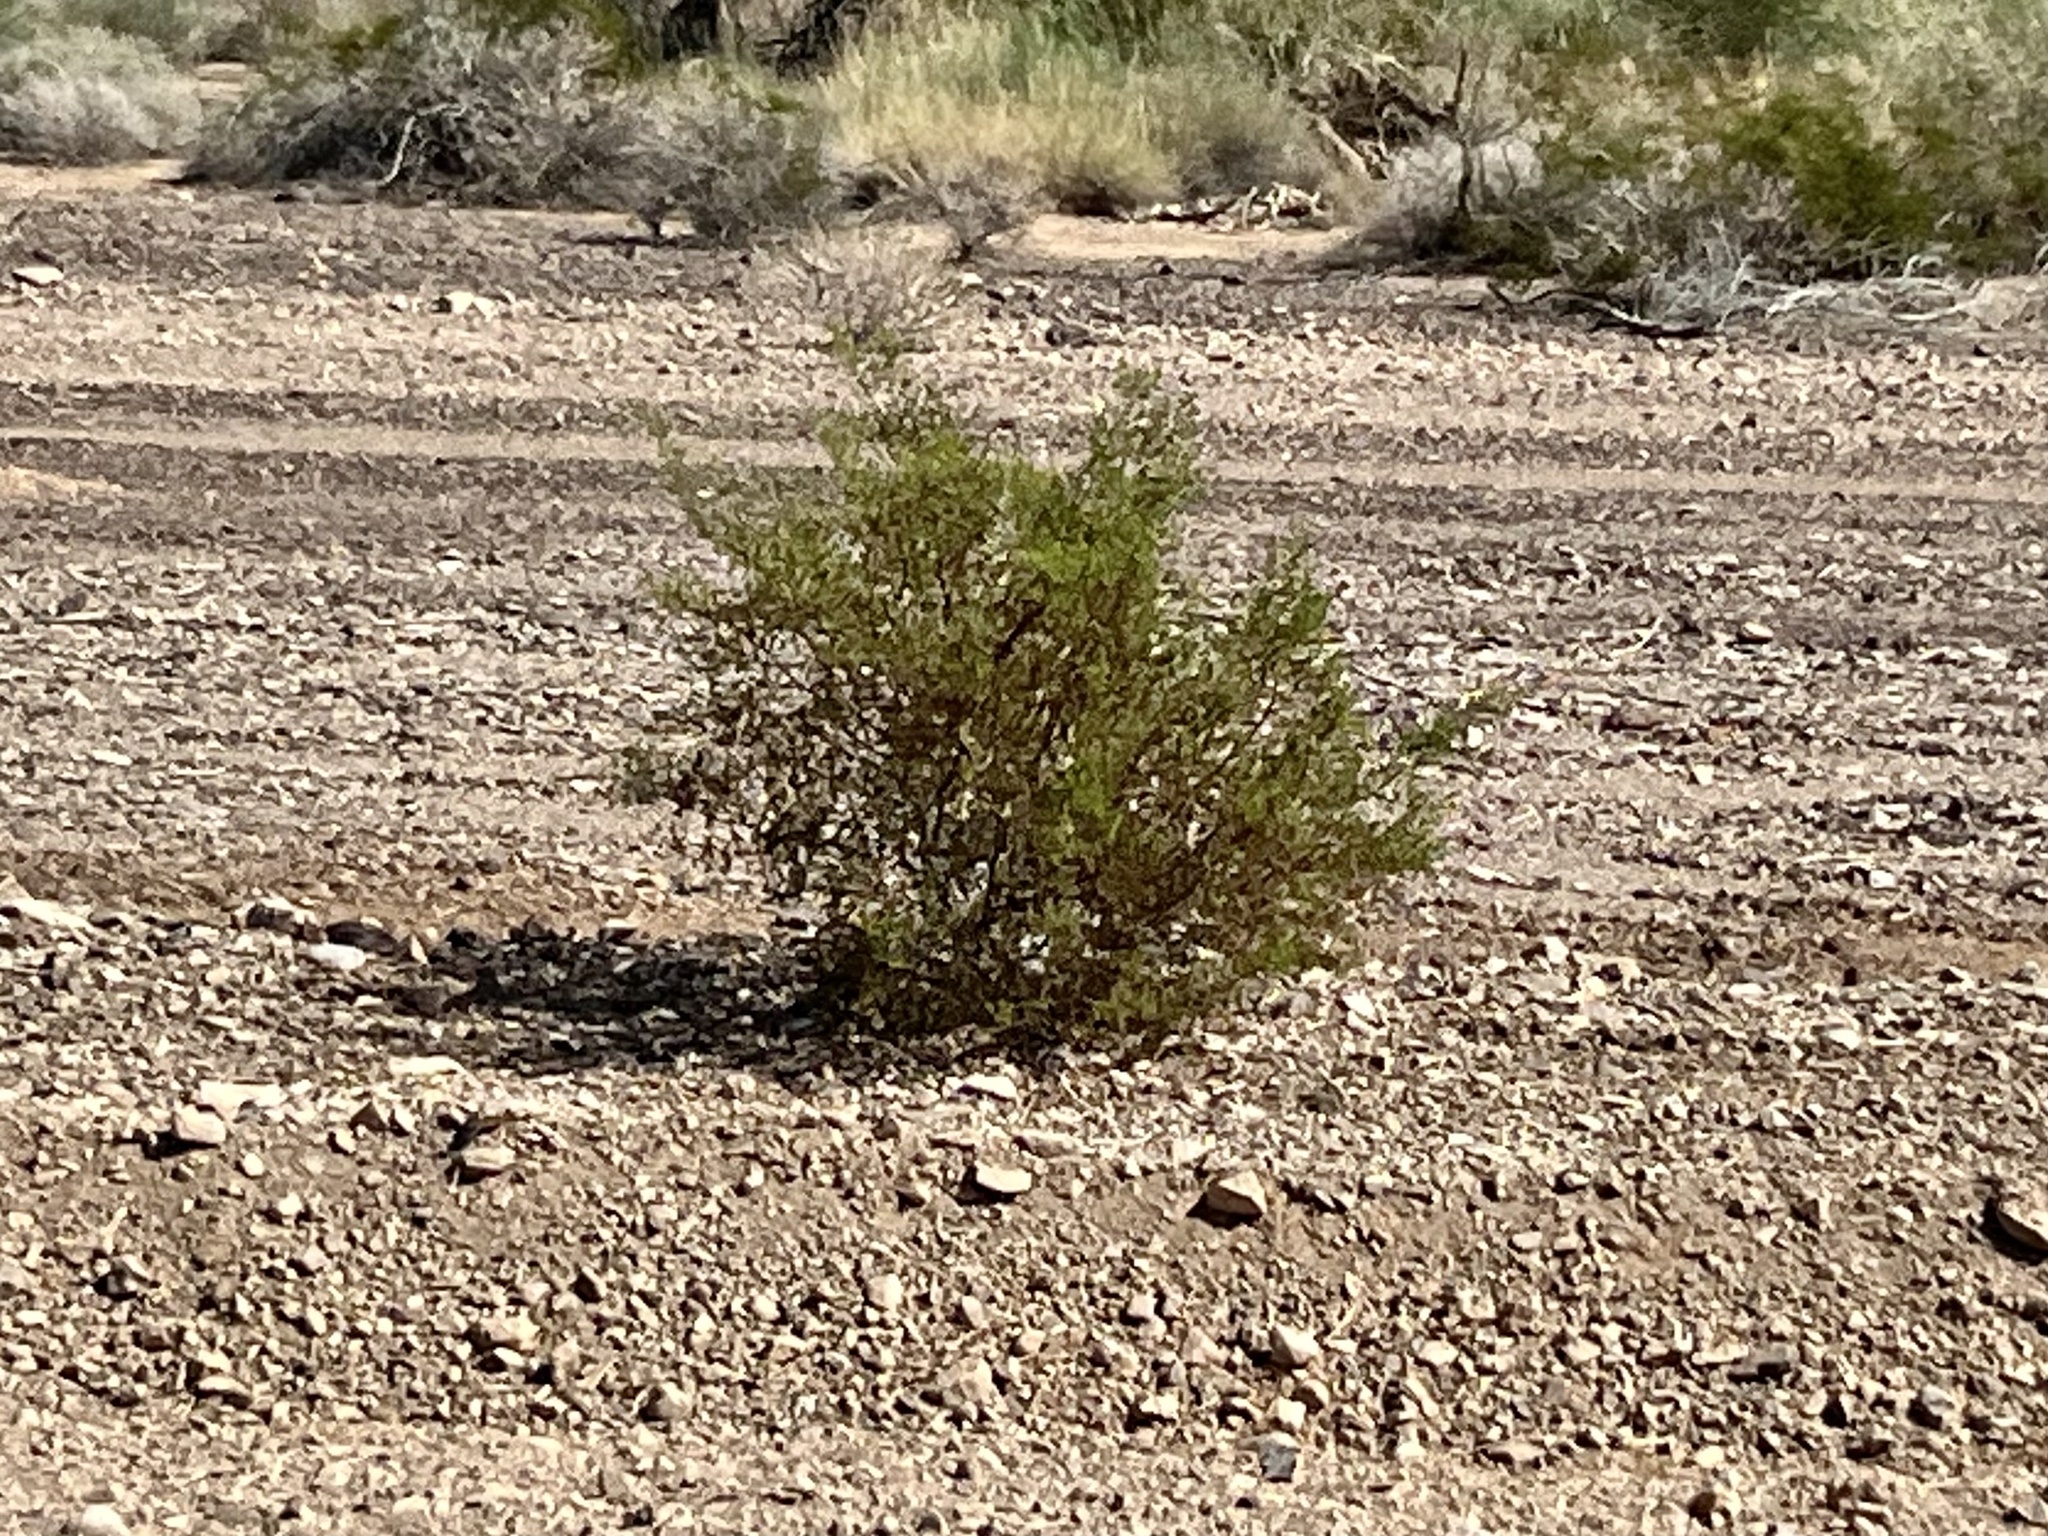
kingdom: Plantae
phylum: Tracheophyta
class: Magnoliopsida
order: Zygophyllales
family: Zygophyllaceae
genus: Larrea
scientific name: Larrea tridentata
